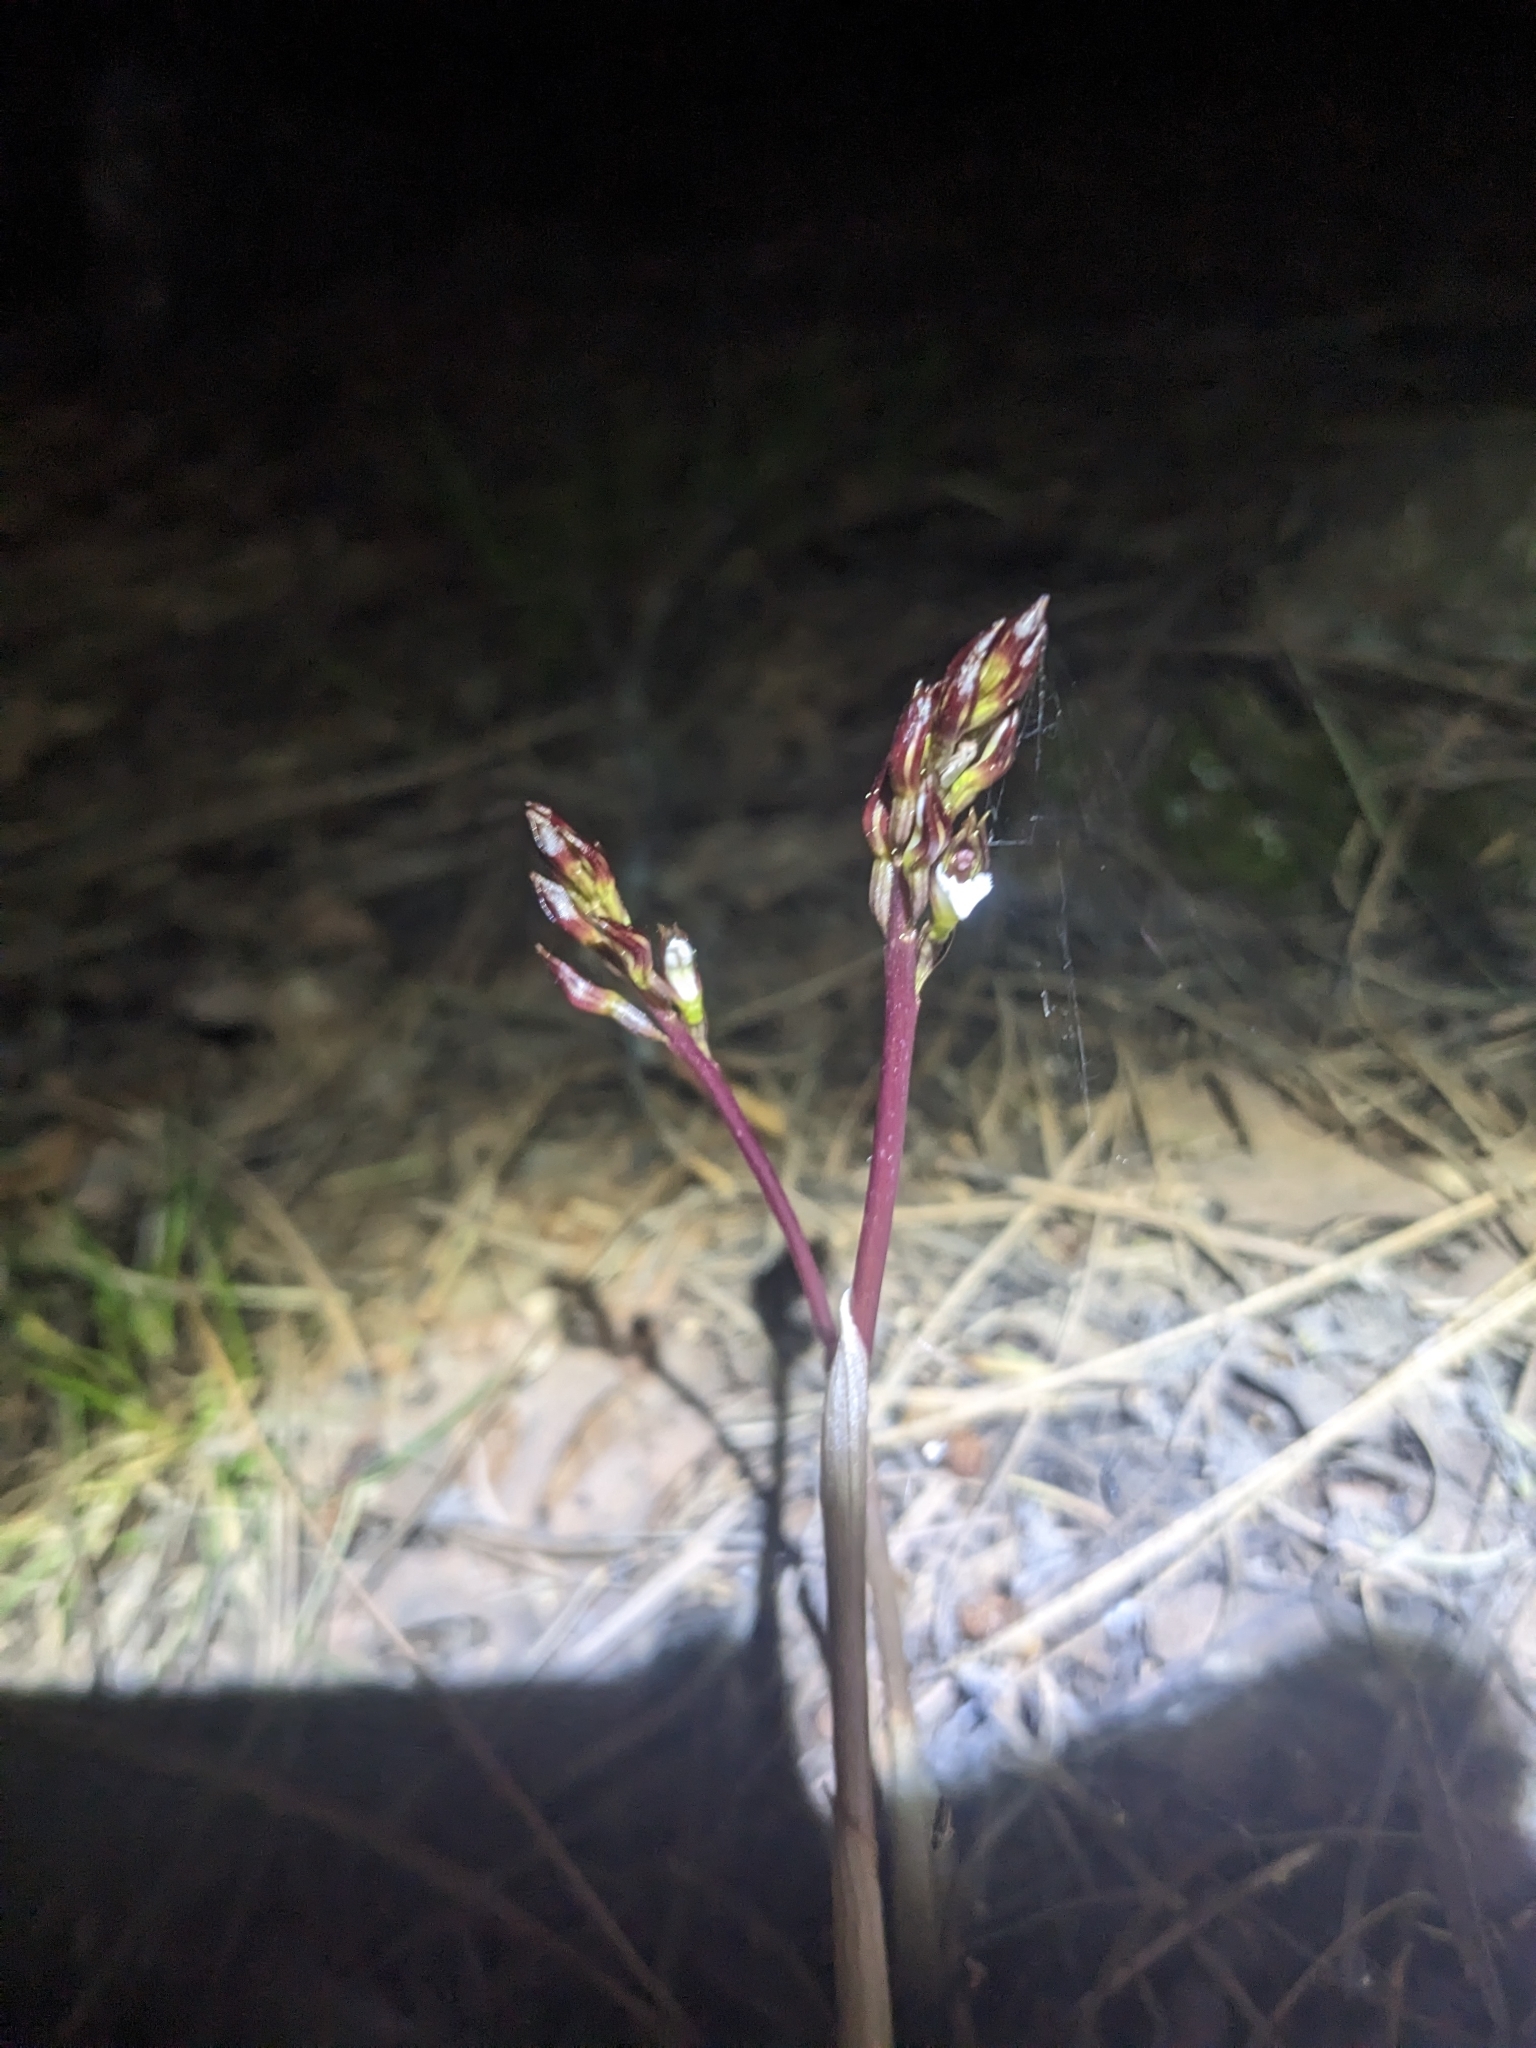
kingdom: Plantae
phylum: Tracheophyta
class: Liliopsida
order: Asparagales
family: Orchidaceae
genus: Corallorhiza
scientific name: Corallorhiza wisteriana
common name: Spring coralroot
